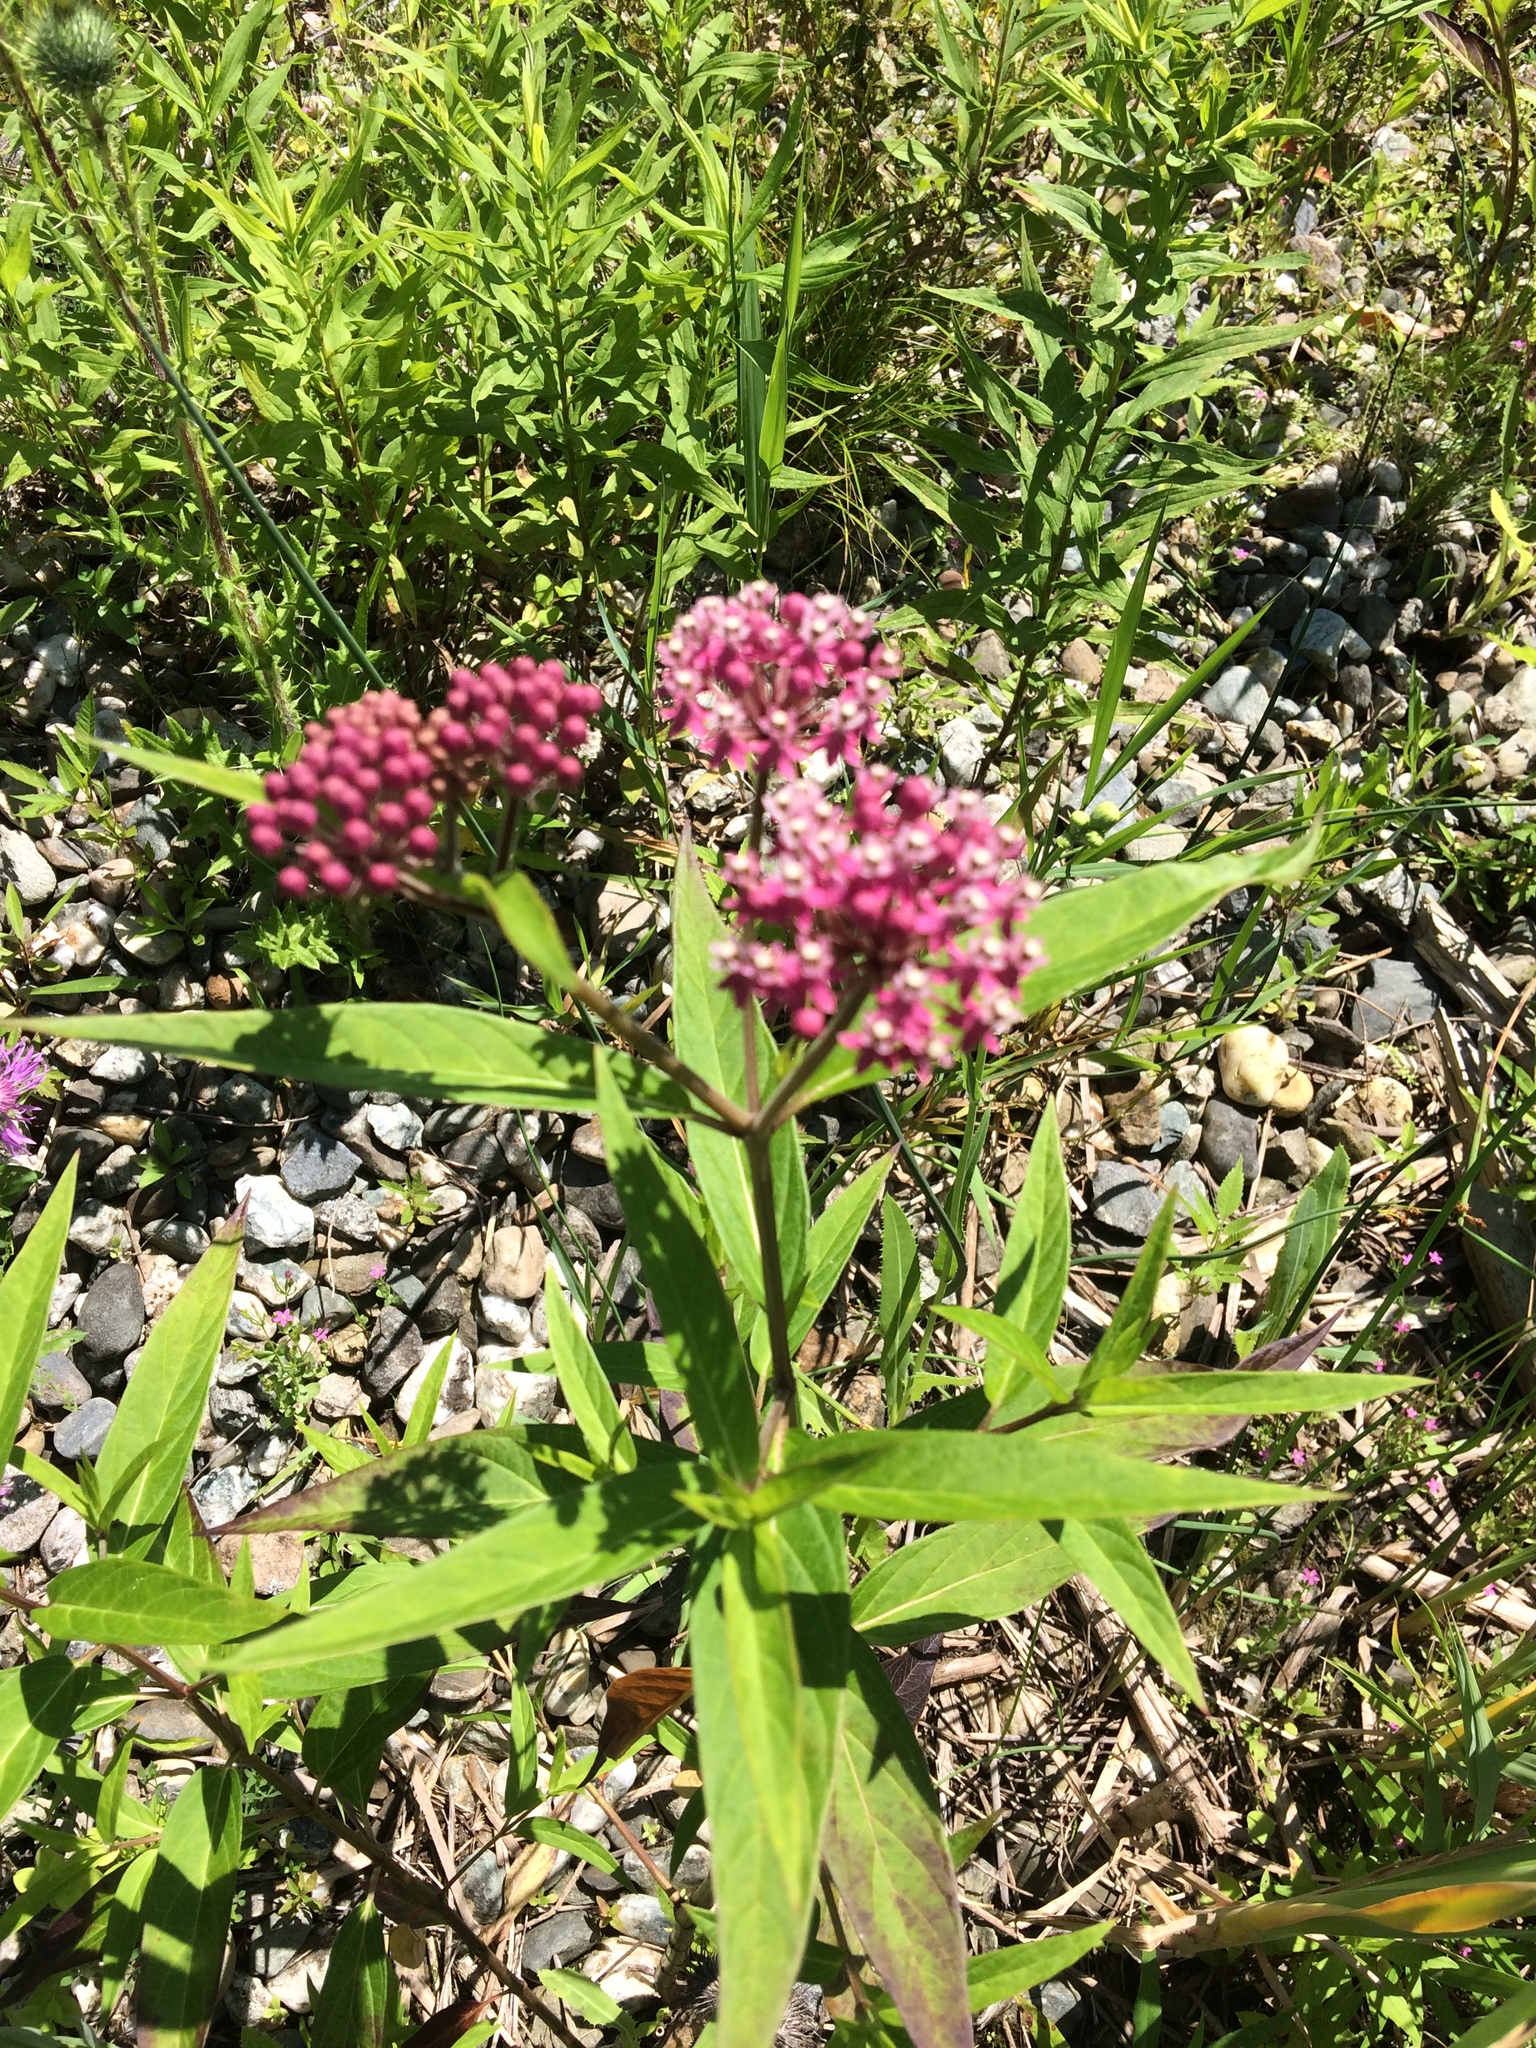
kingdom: Plantae
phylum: Tracheophyta
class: Magnoliopsida
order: Gentianales
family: Apocynaceae
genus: Asclepias
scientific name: Asclepias incarnata
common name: Swamp milkweed
